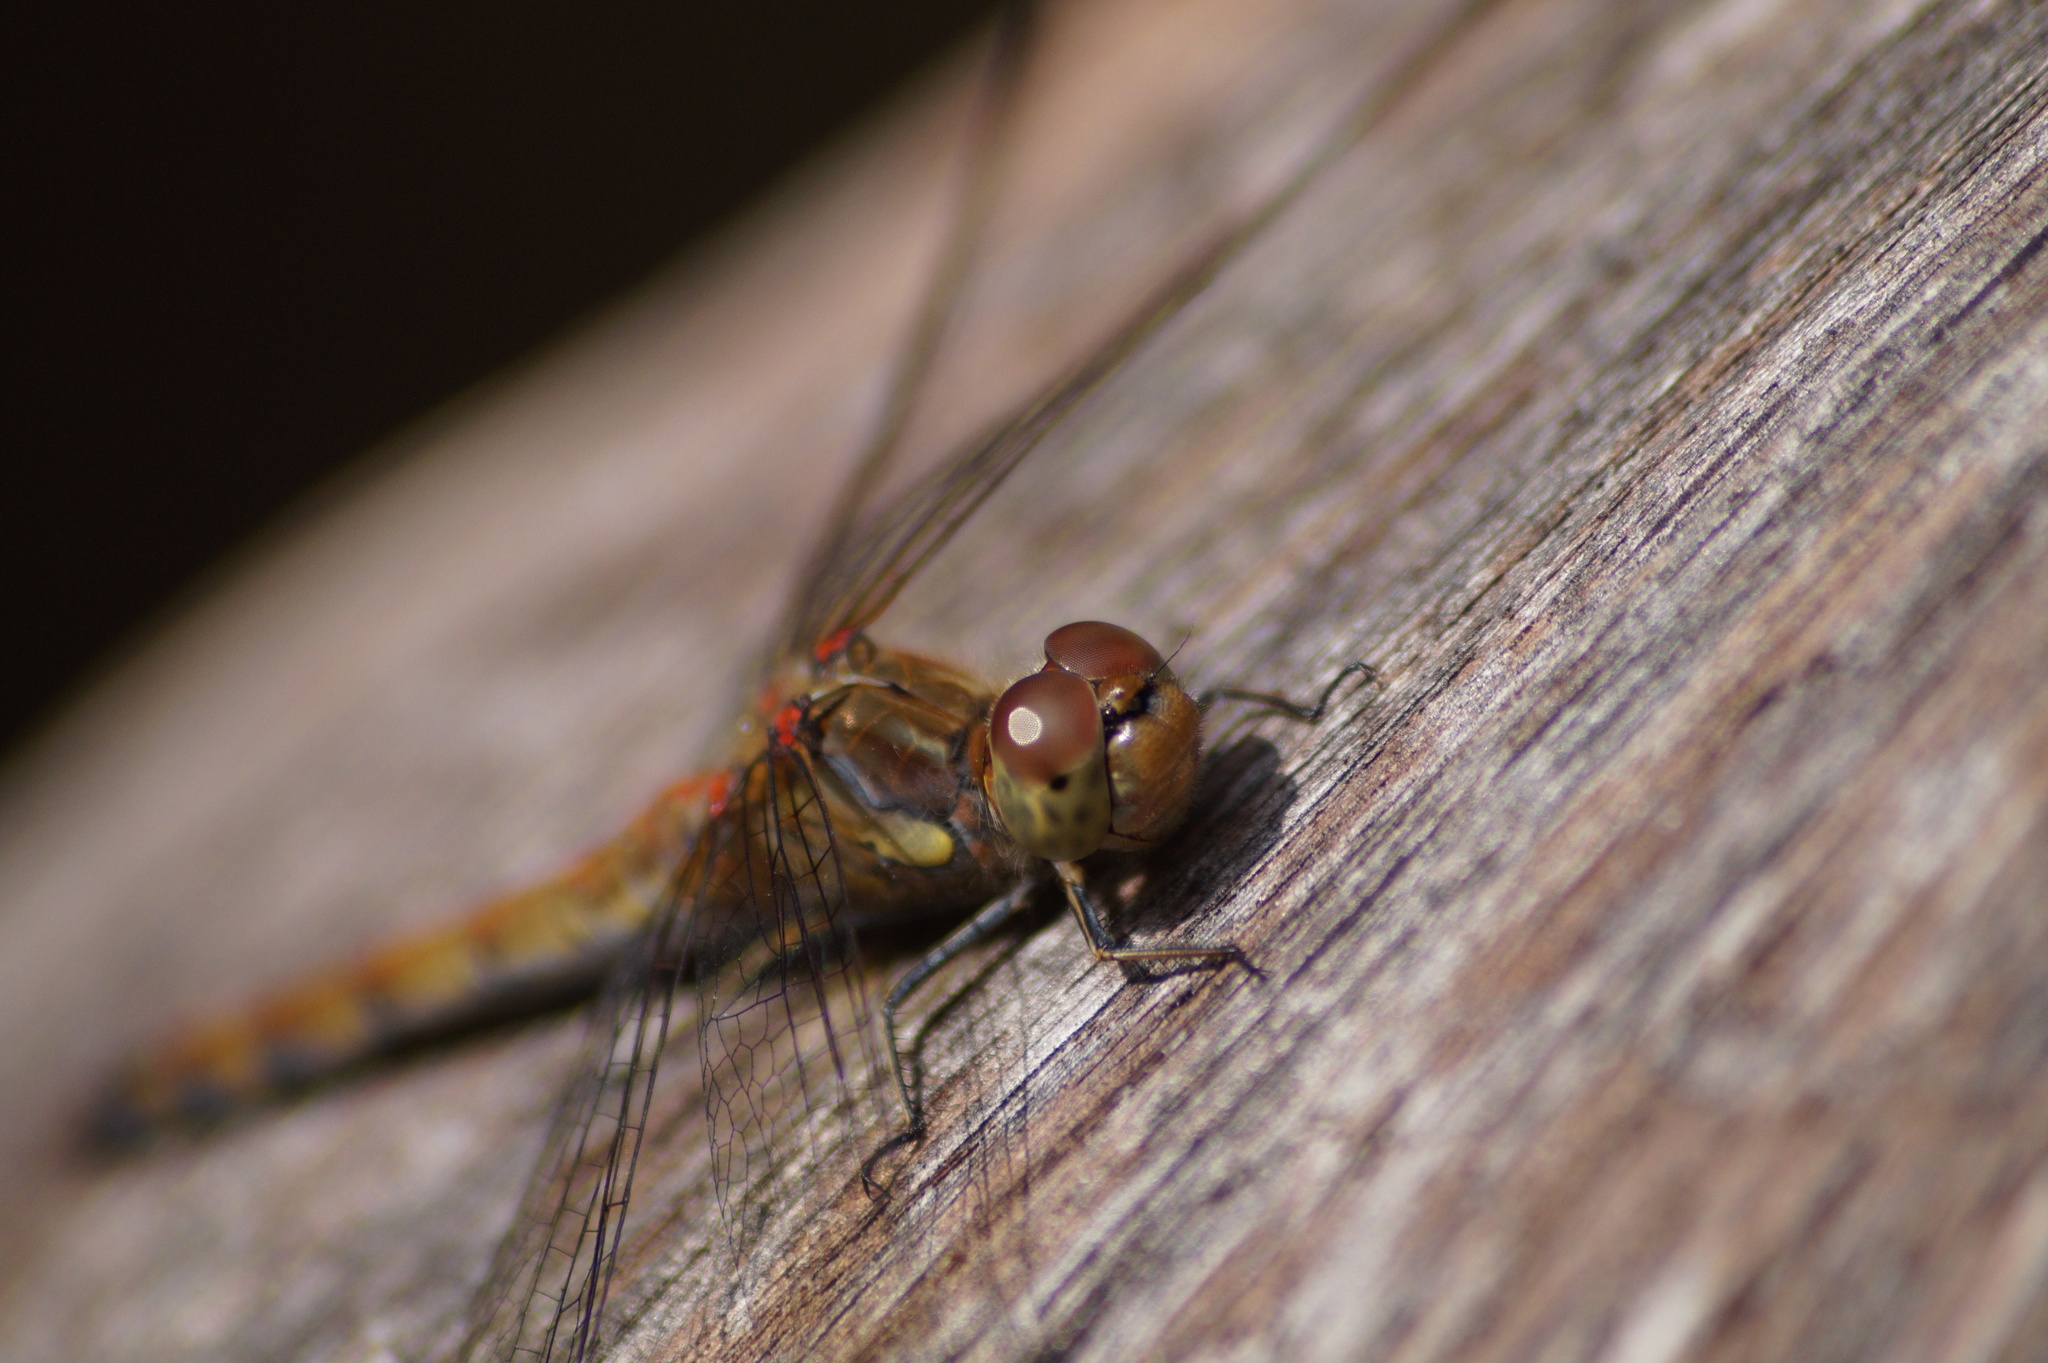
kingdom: Animalia
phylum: Arthropoda
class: Insecta
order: Odonata
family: Libellulidae
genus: Sympetrum
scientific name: Sympetrum striolatum
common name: Common darter
